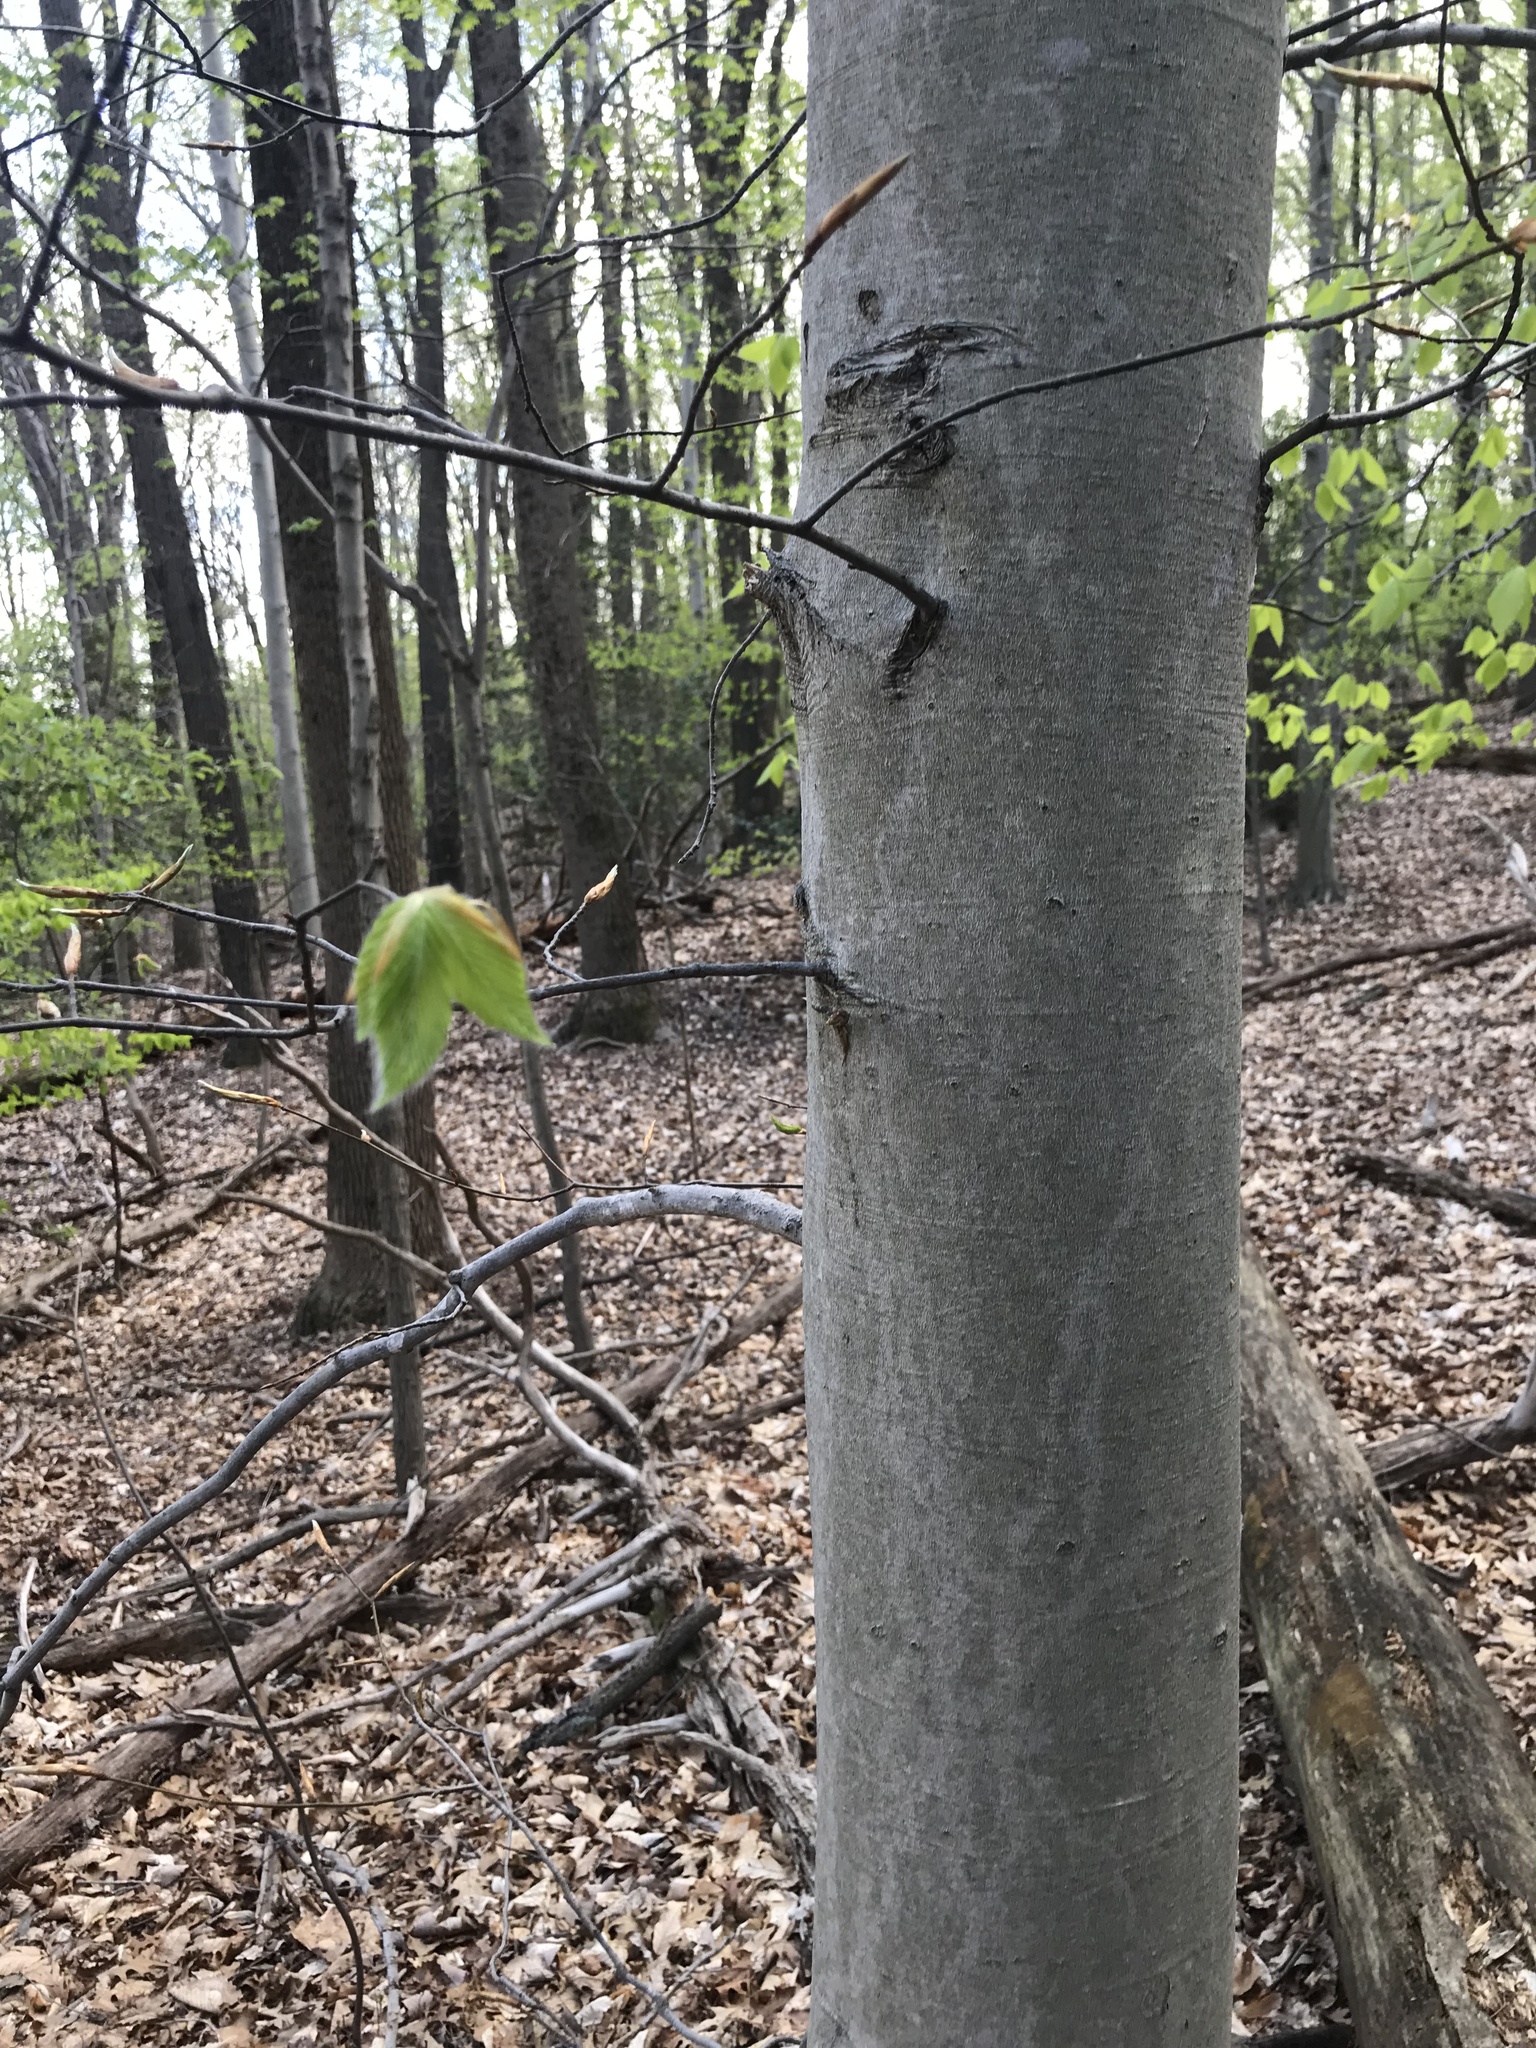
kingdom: Plantae
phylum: Tracheophyta
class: Magnoliopsida
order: Fagales
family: Fagaceae
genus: Fagus
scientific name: Fagus grandifolia
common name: American beech
